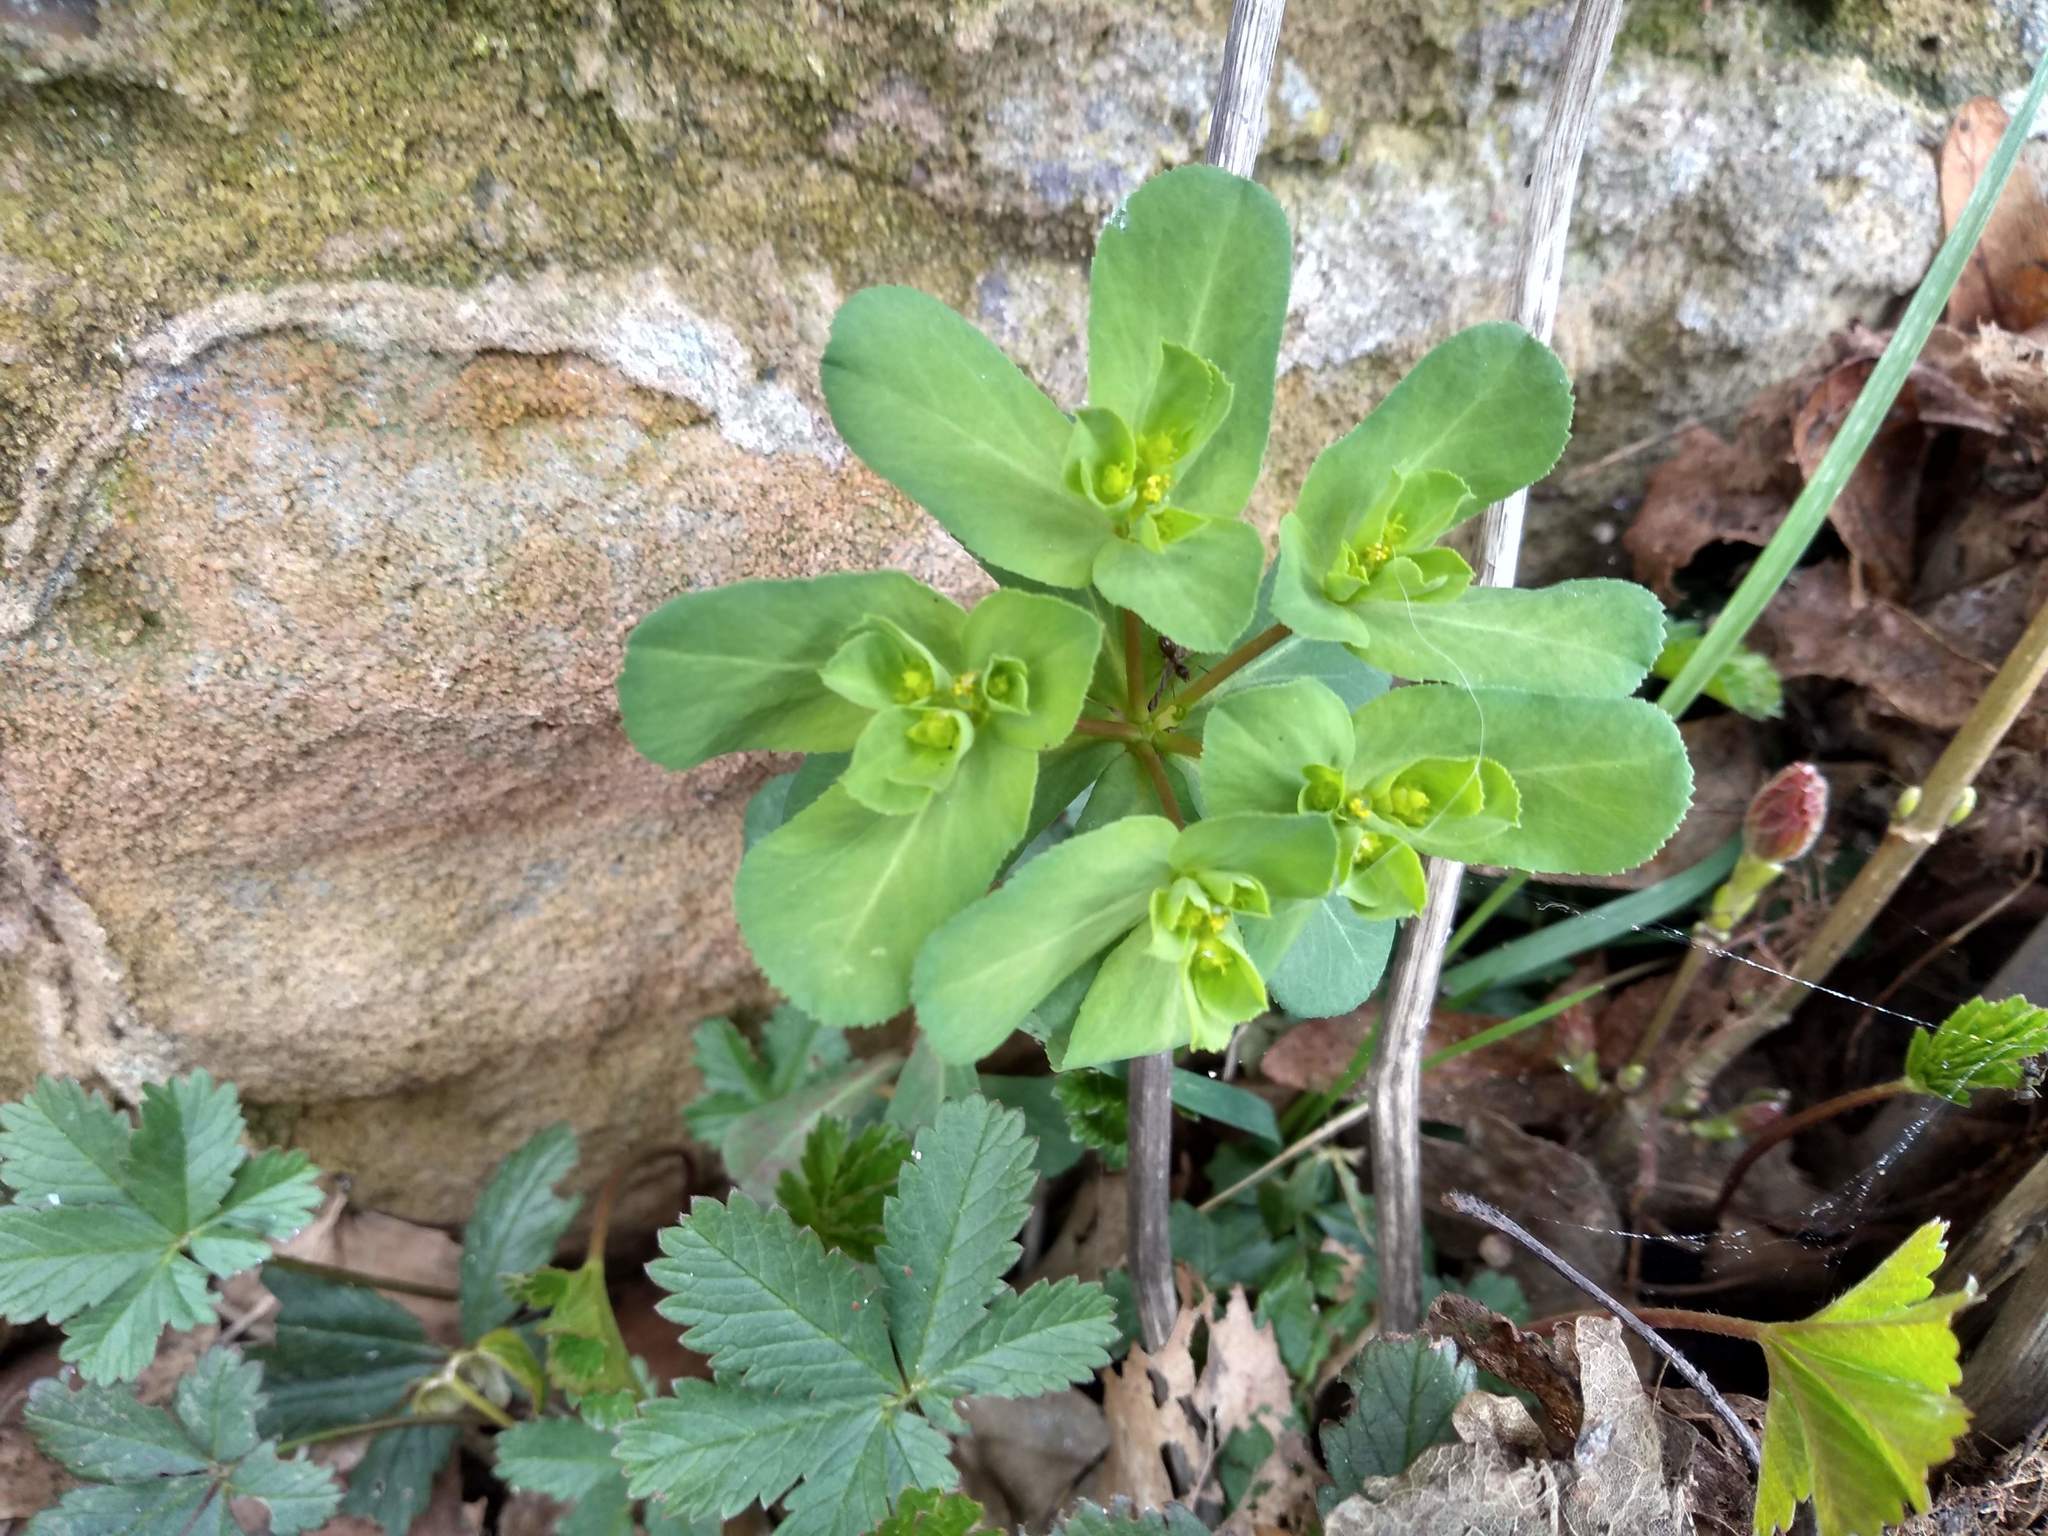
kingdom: Plantae
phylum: Tracheophyta
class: Magnoliopsida
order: Malpighiales
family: Euphorbiaceae
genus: Euphorbia
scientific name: Euphorbia helioscopia
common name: Sun spurge
